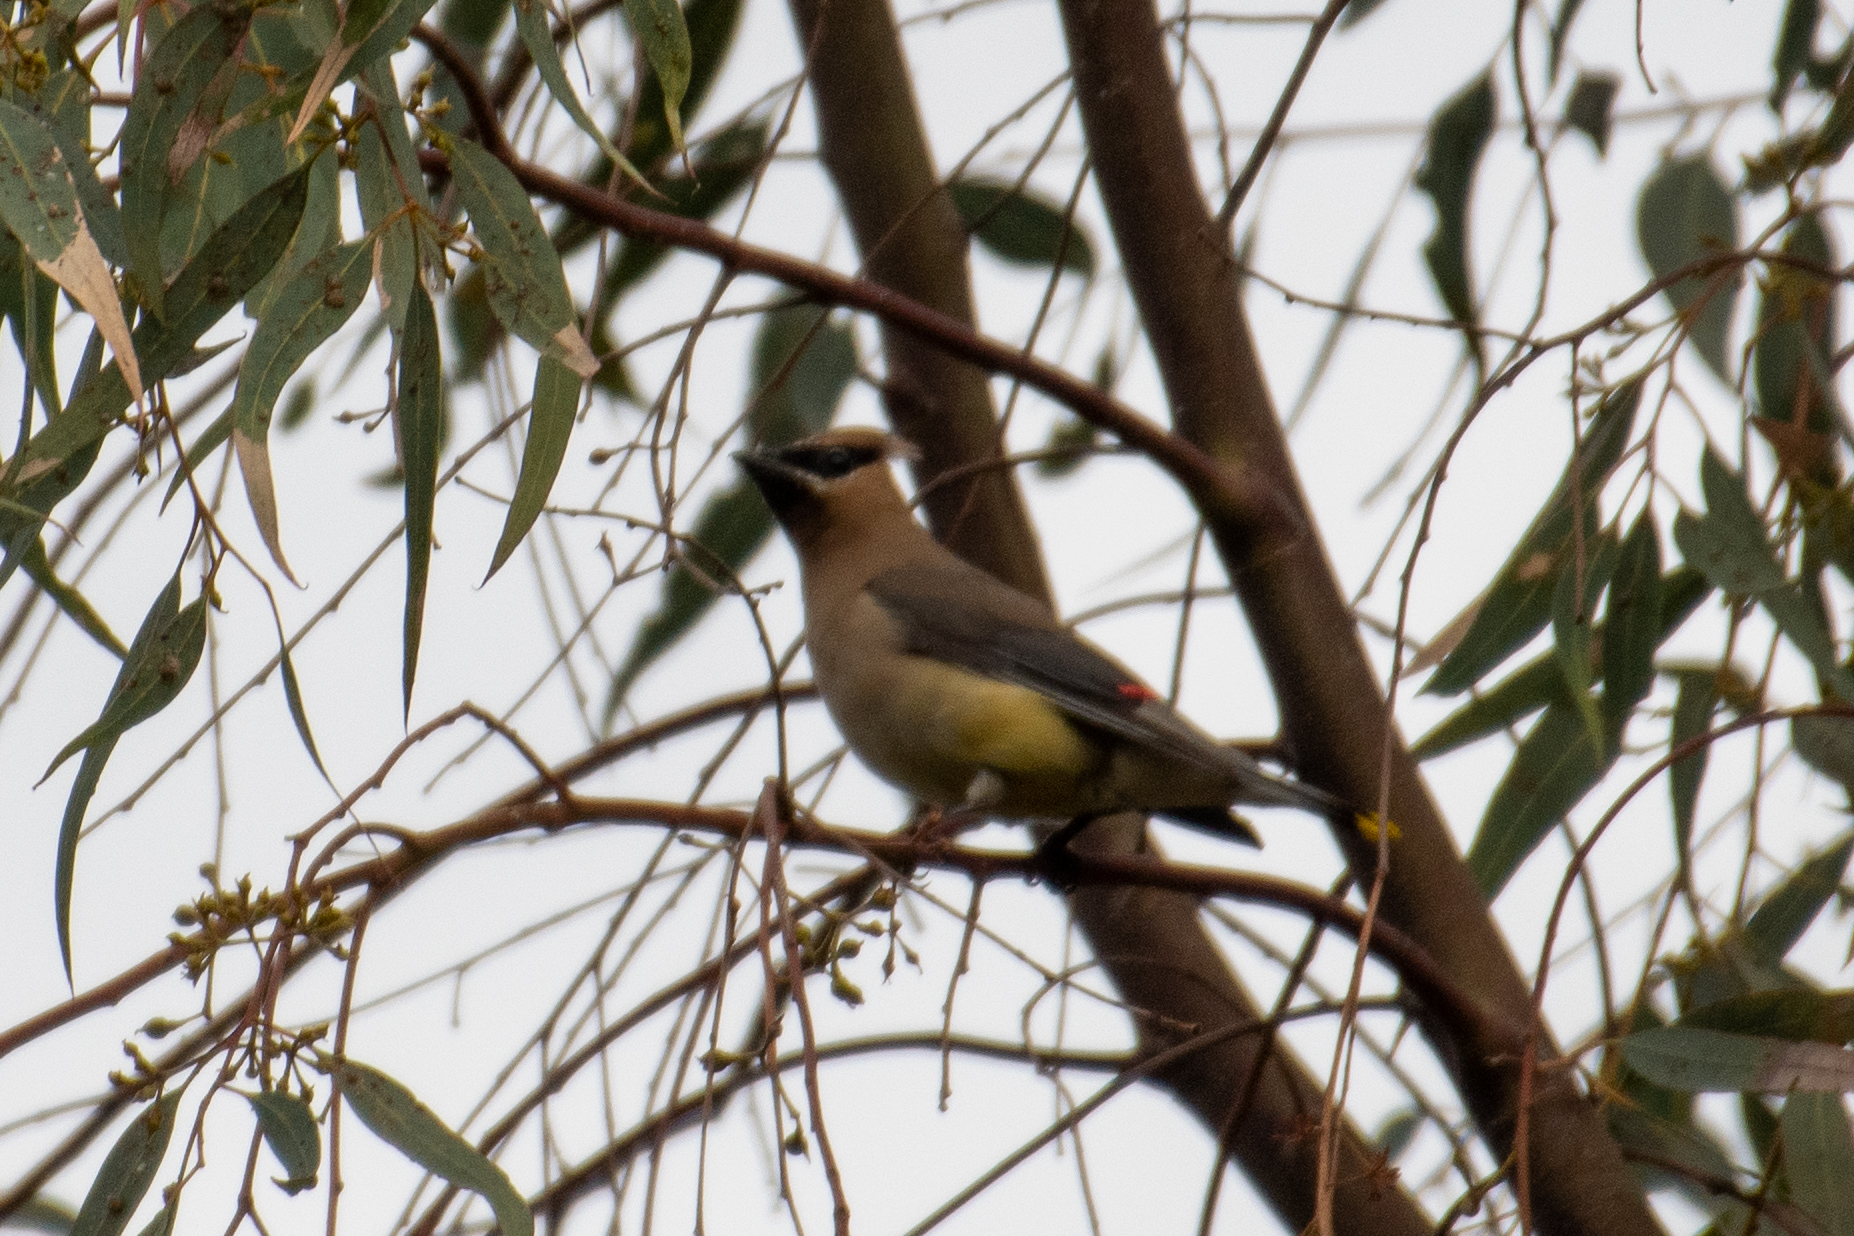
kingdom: Animalia
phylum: Chordata
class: Aves
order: Passeriformes
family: Bombycillidae
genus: Bombycilla
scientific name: Bombycilla cedrorum
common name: Cedar waxwing
